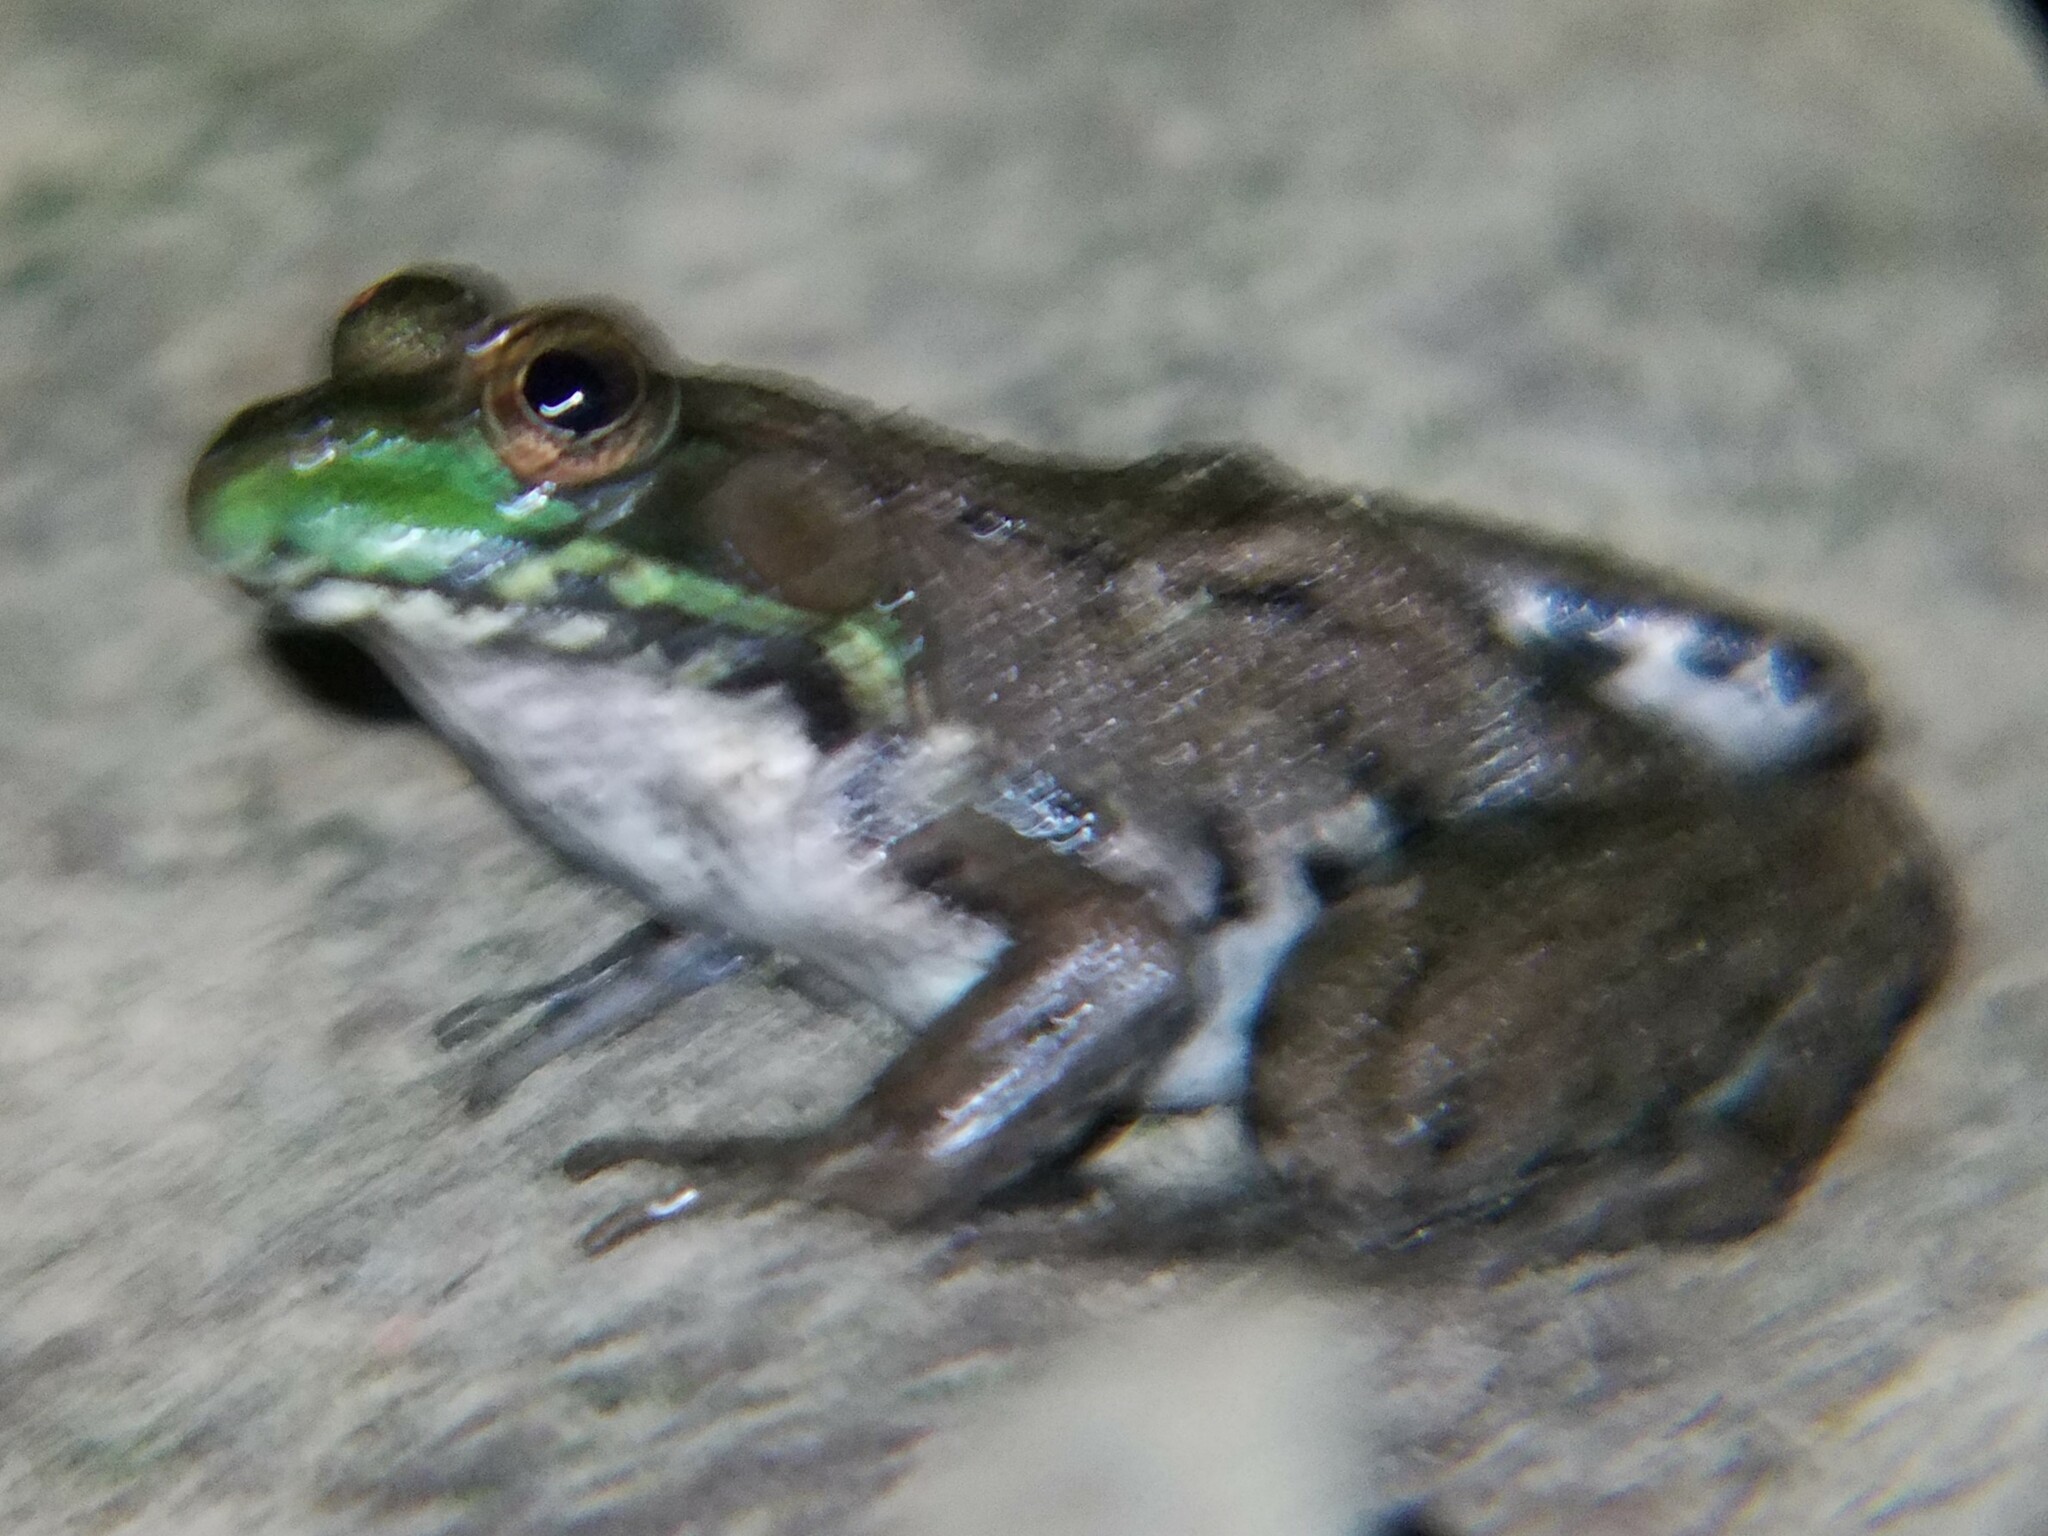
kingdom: Animalia
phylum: Chordata
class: Amphibia
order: Anura
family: Ranidae
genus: Lithobates
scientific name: Lithobates clamitans
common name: Green frog
